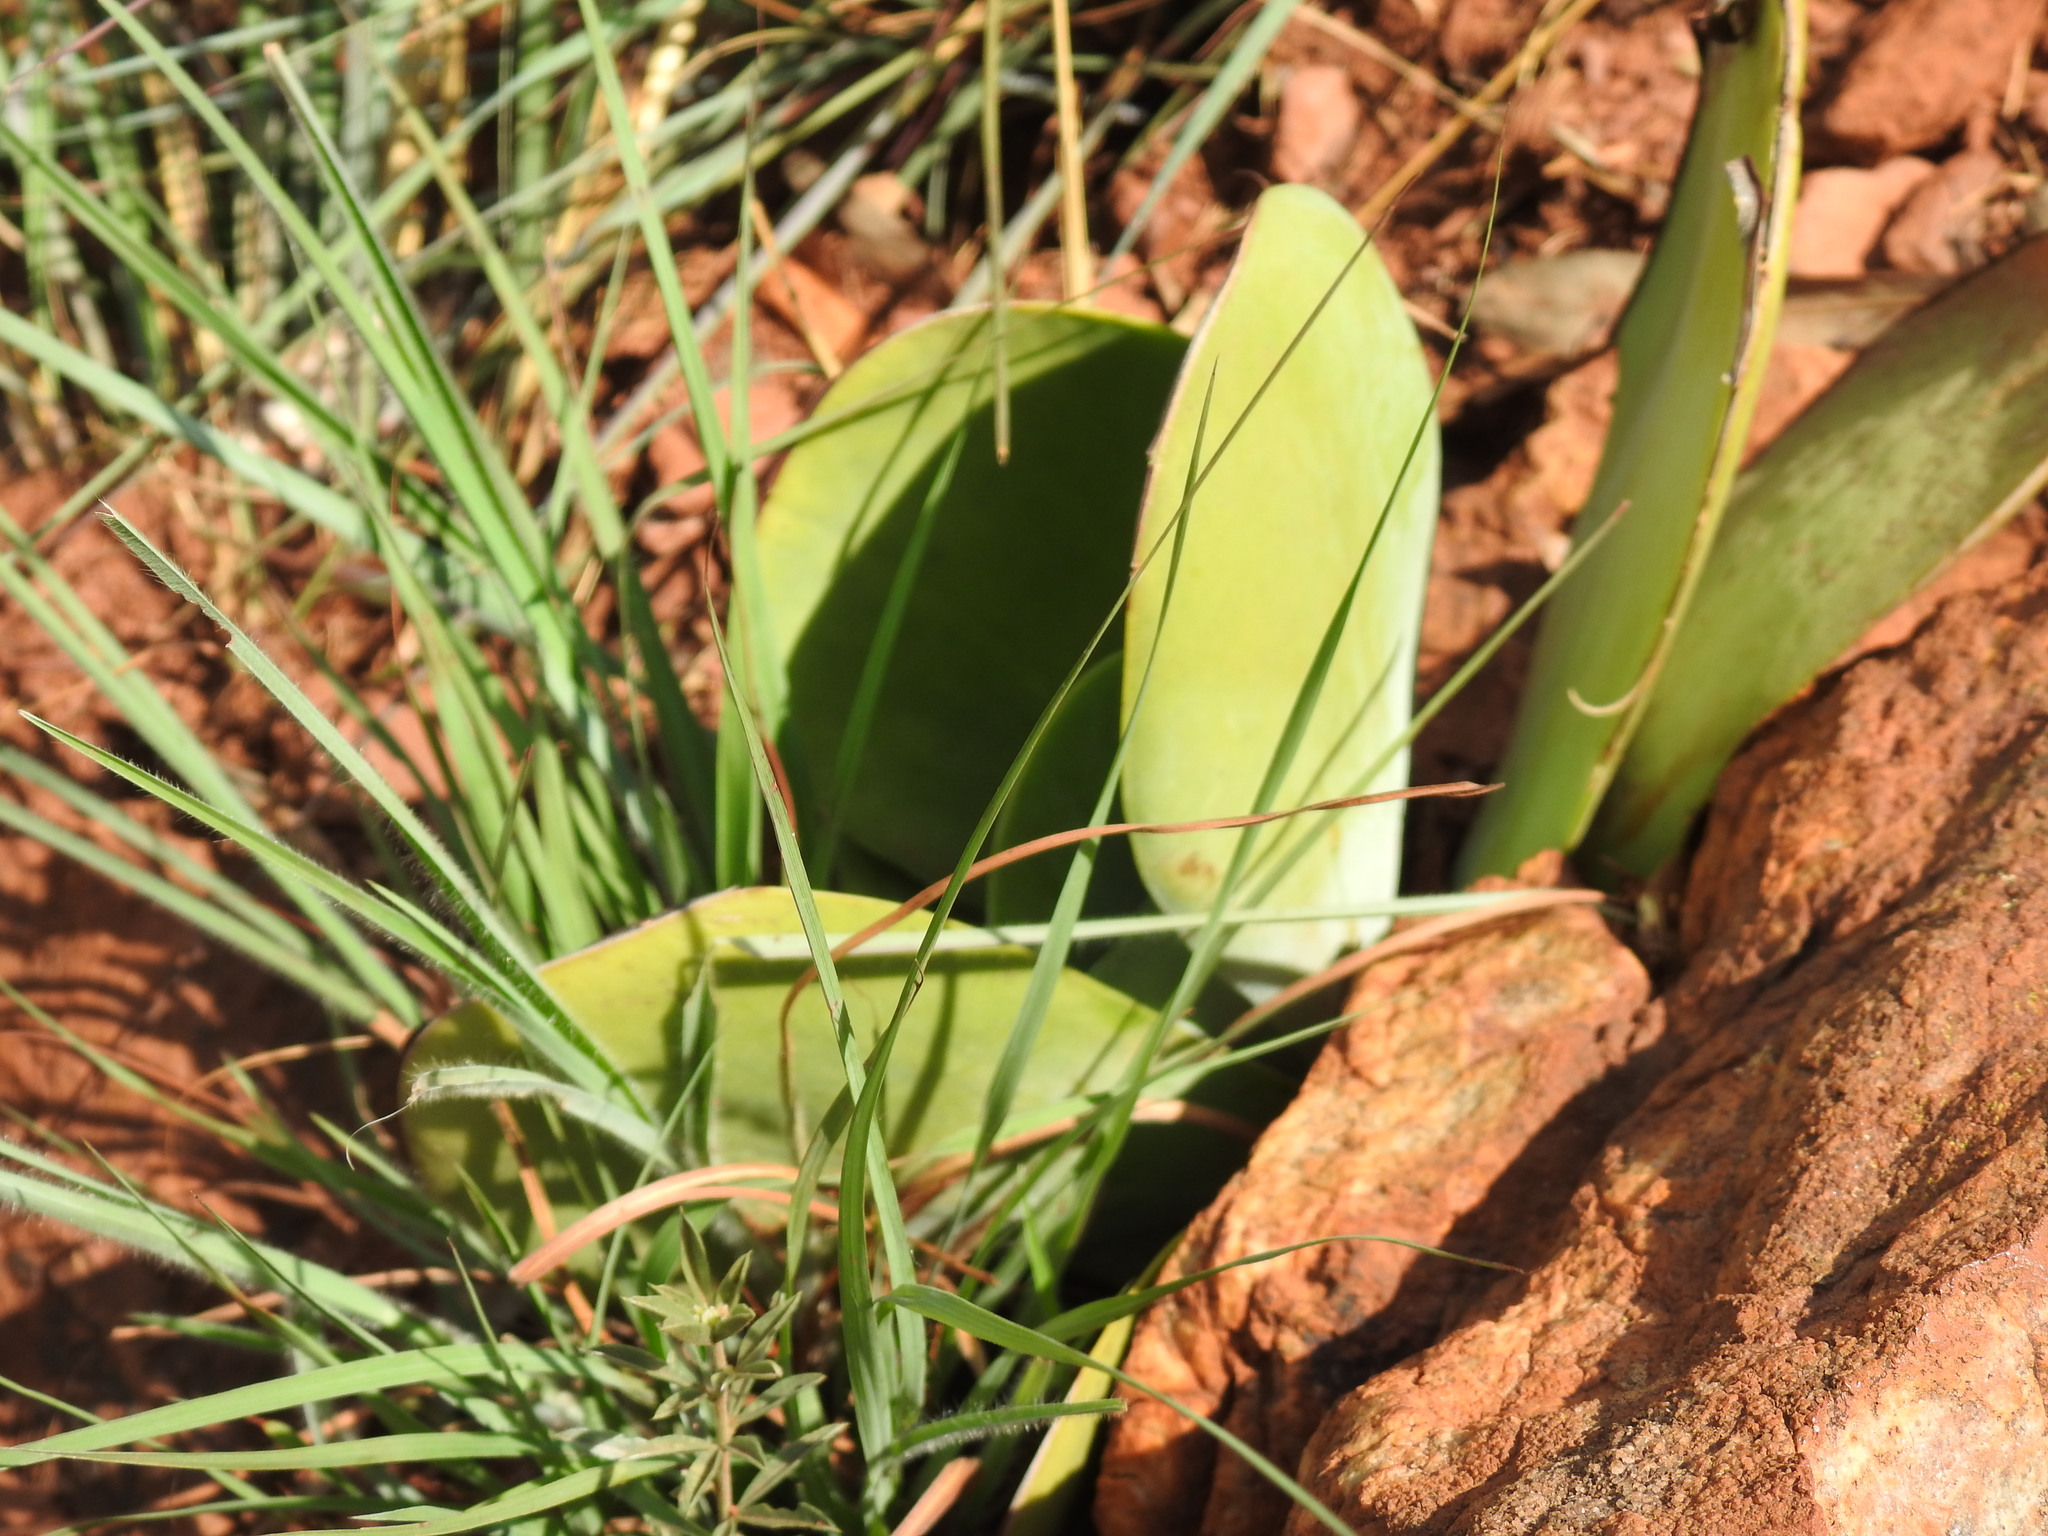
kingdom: Plantae
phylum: Tracheophyta
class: Magnoliopsida
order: Saxifragales
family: Crassulaceae
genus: Kalanchoe
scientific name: Kalanchoe thyrsiflora
